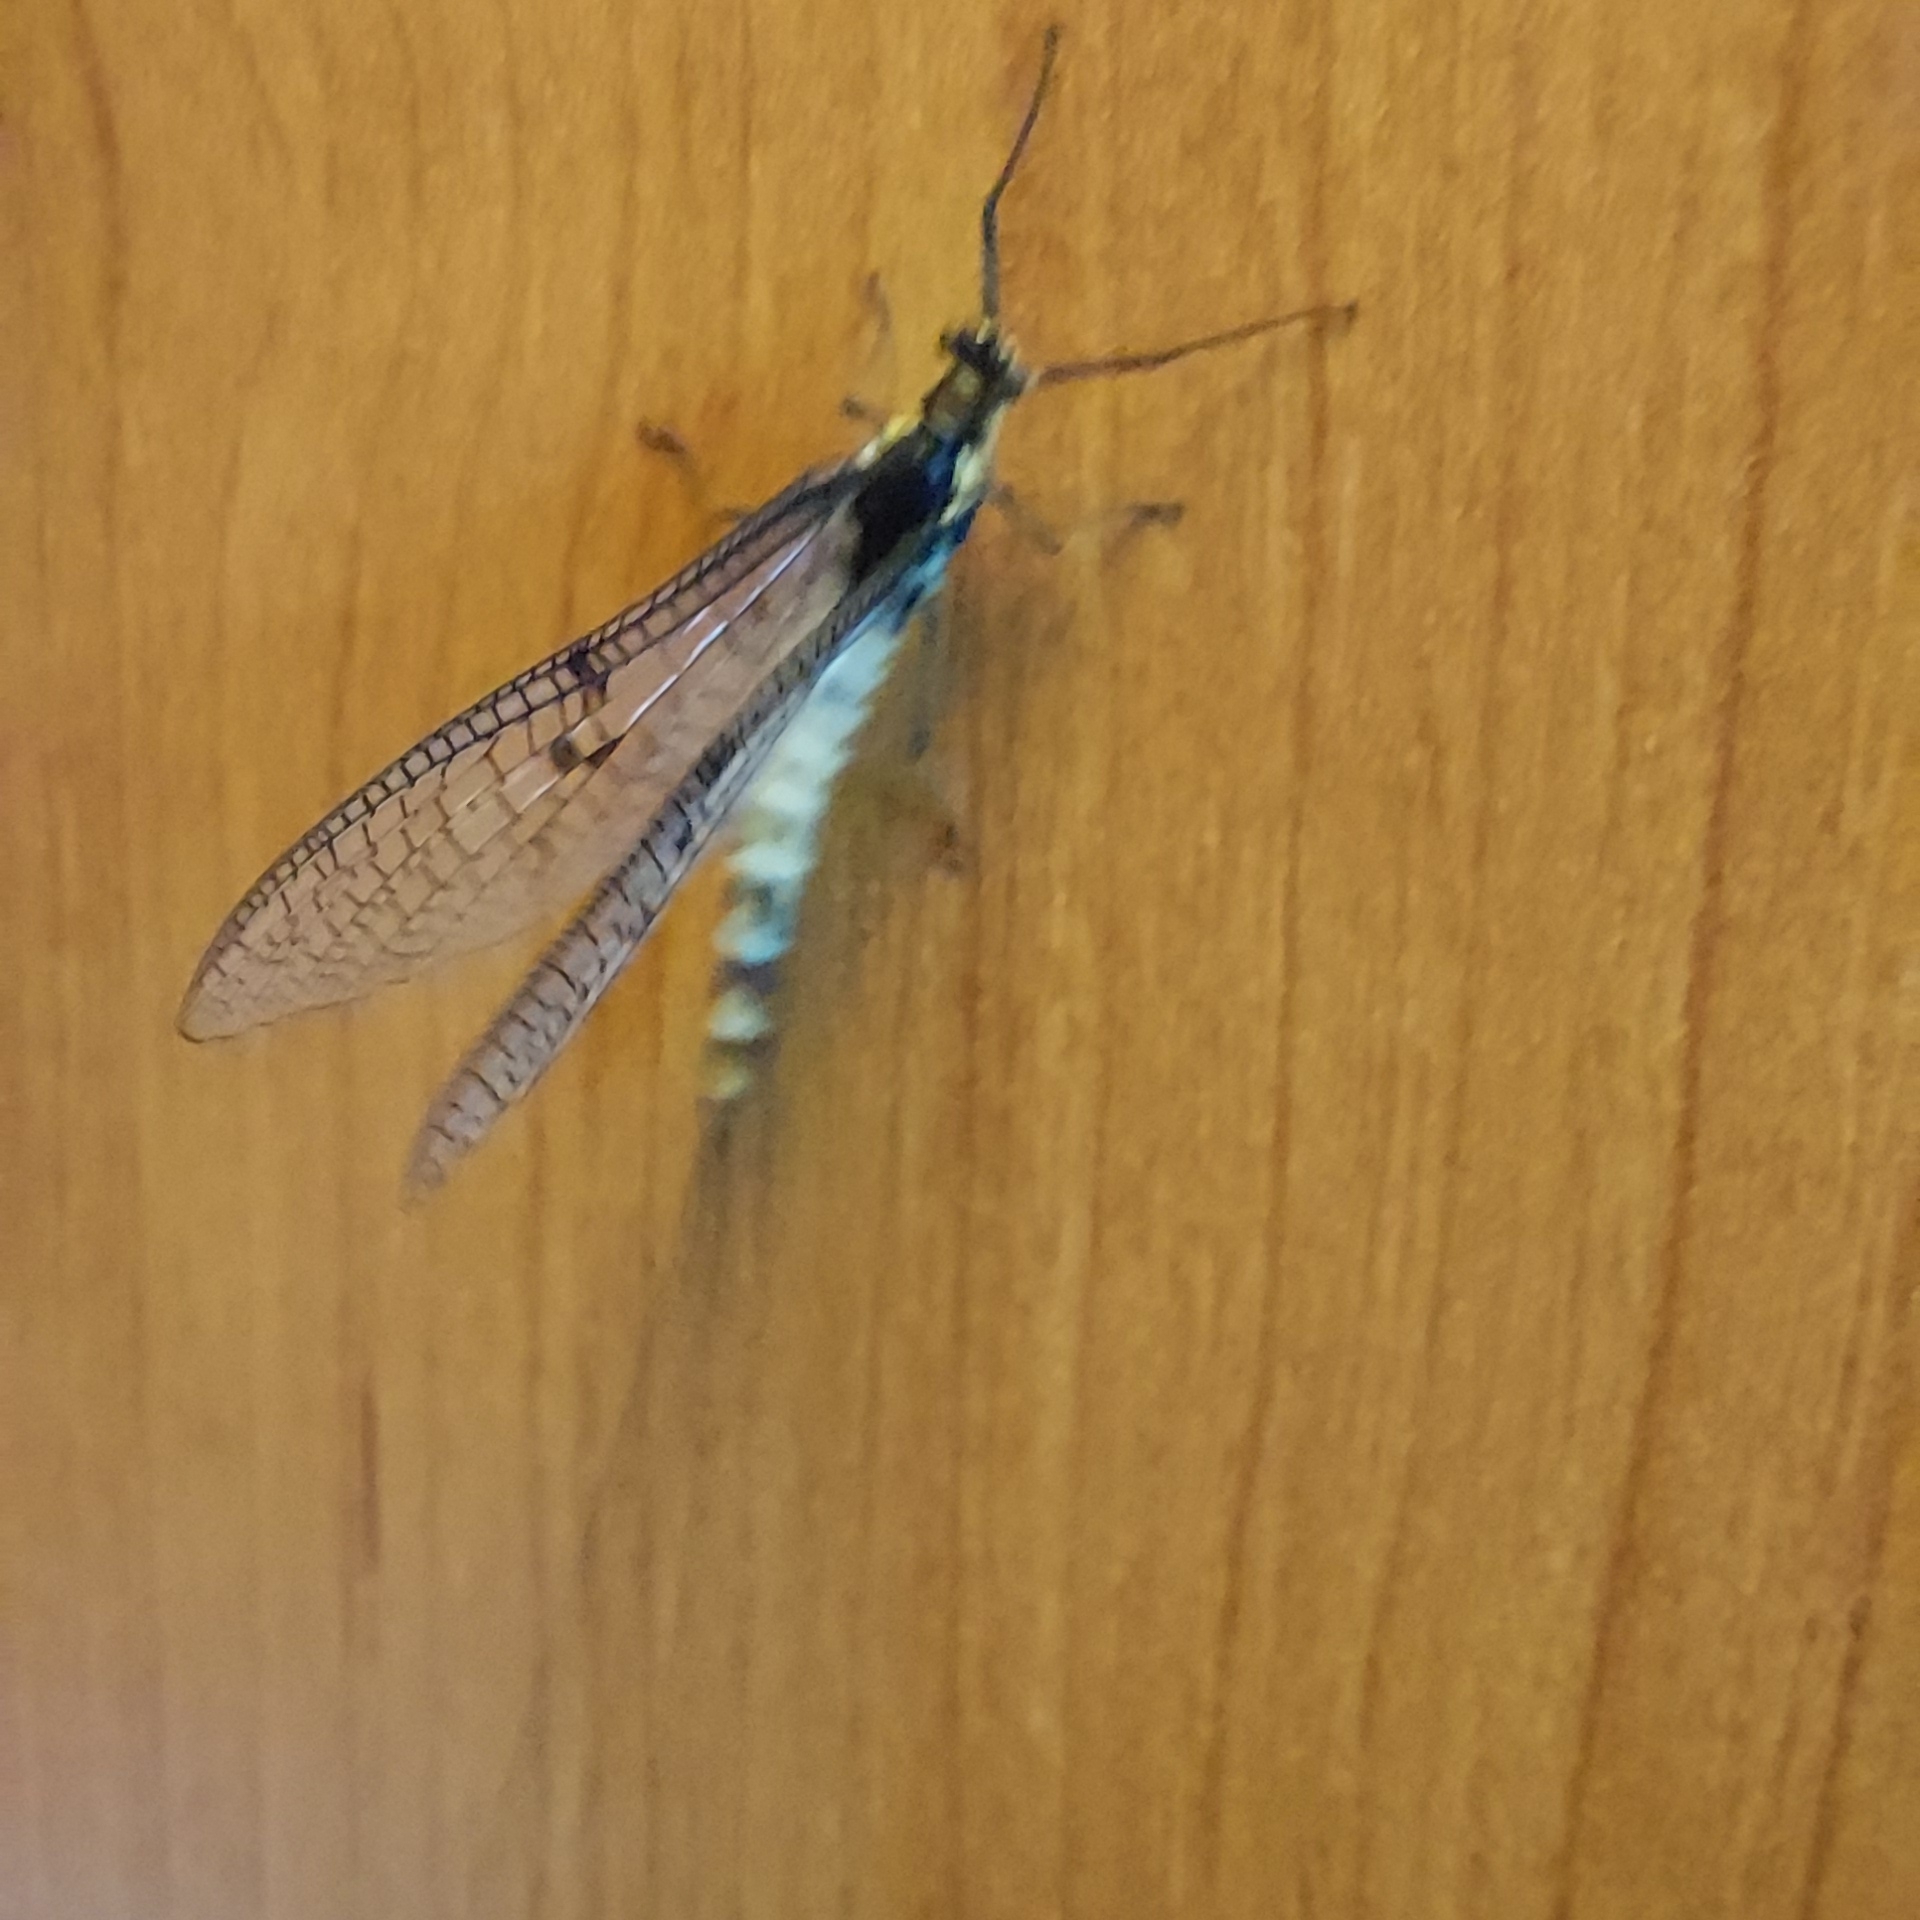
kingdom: Animalia
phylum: Arthropoda
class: Insecta
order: Ephemeroptera
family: Ephemeridae
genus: Ephemera
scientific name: Ephemera danica
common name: Green dun
